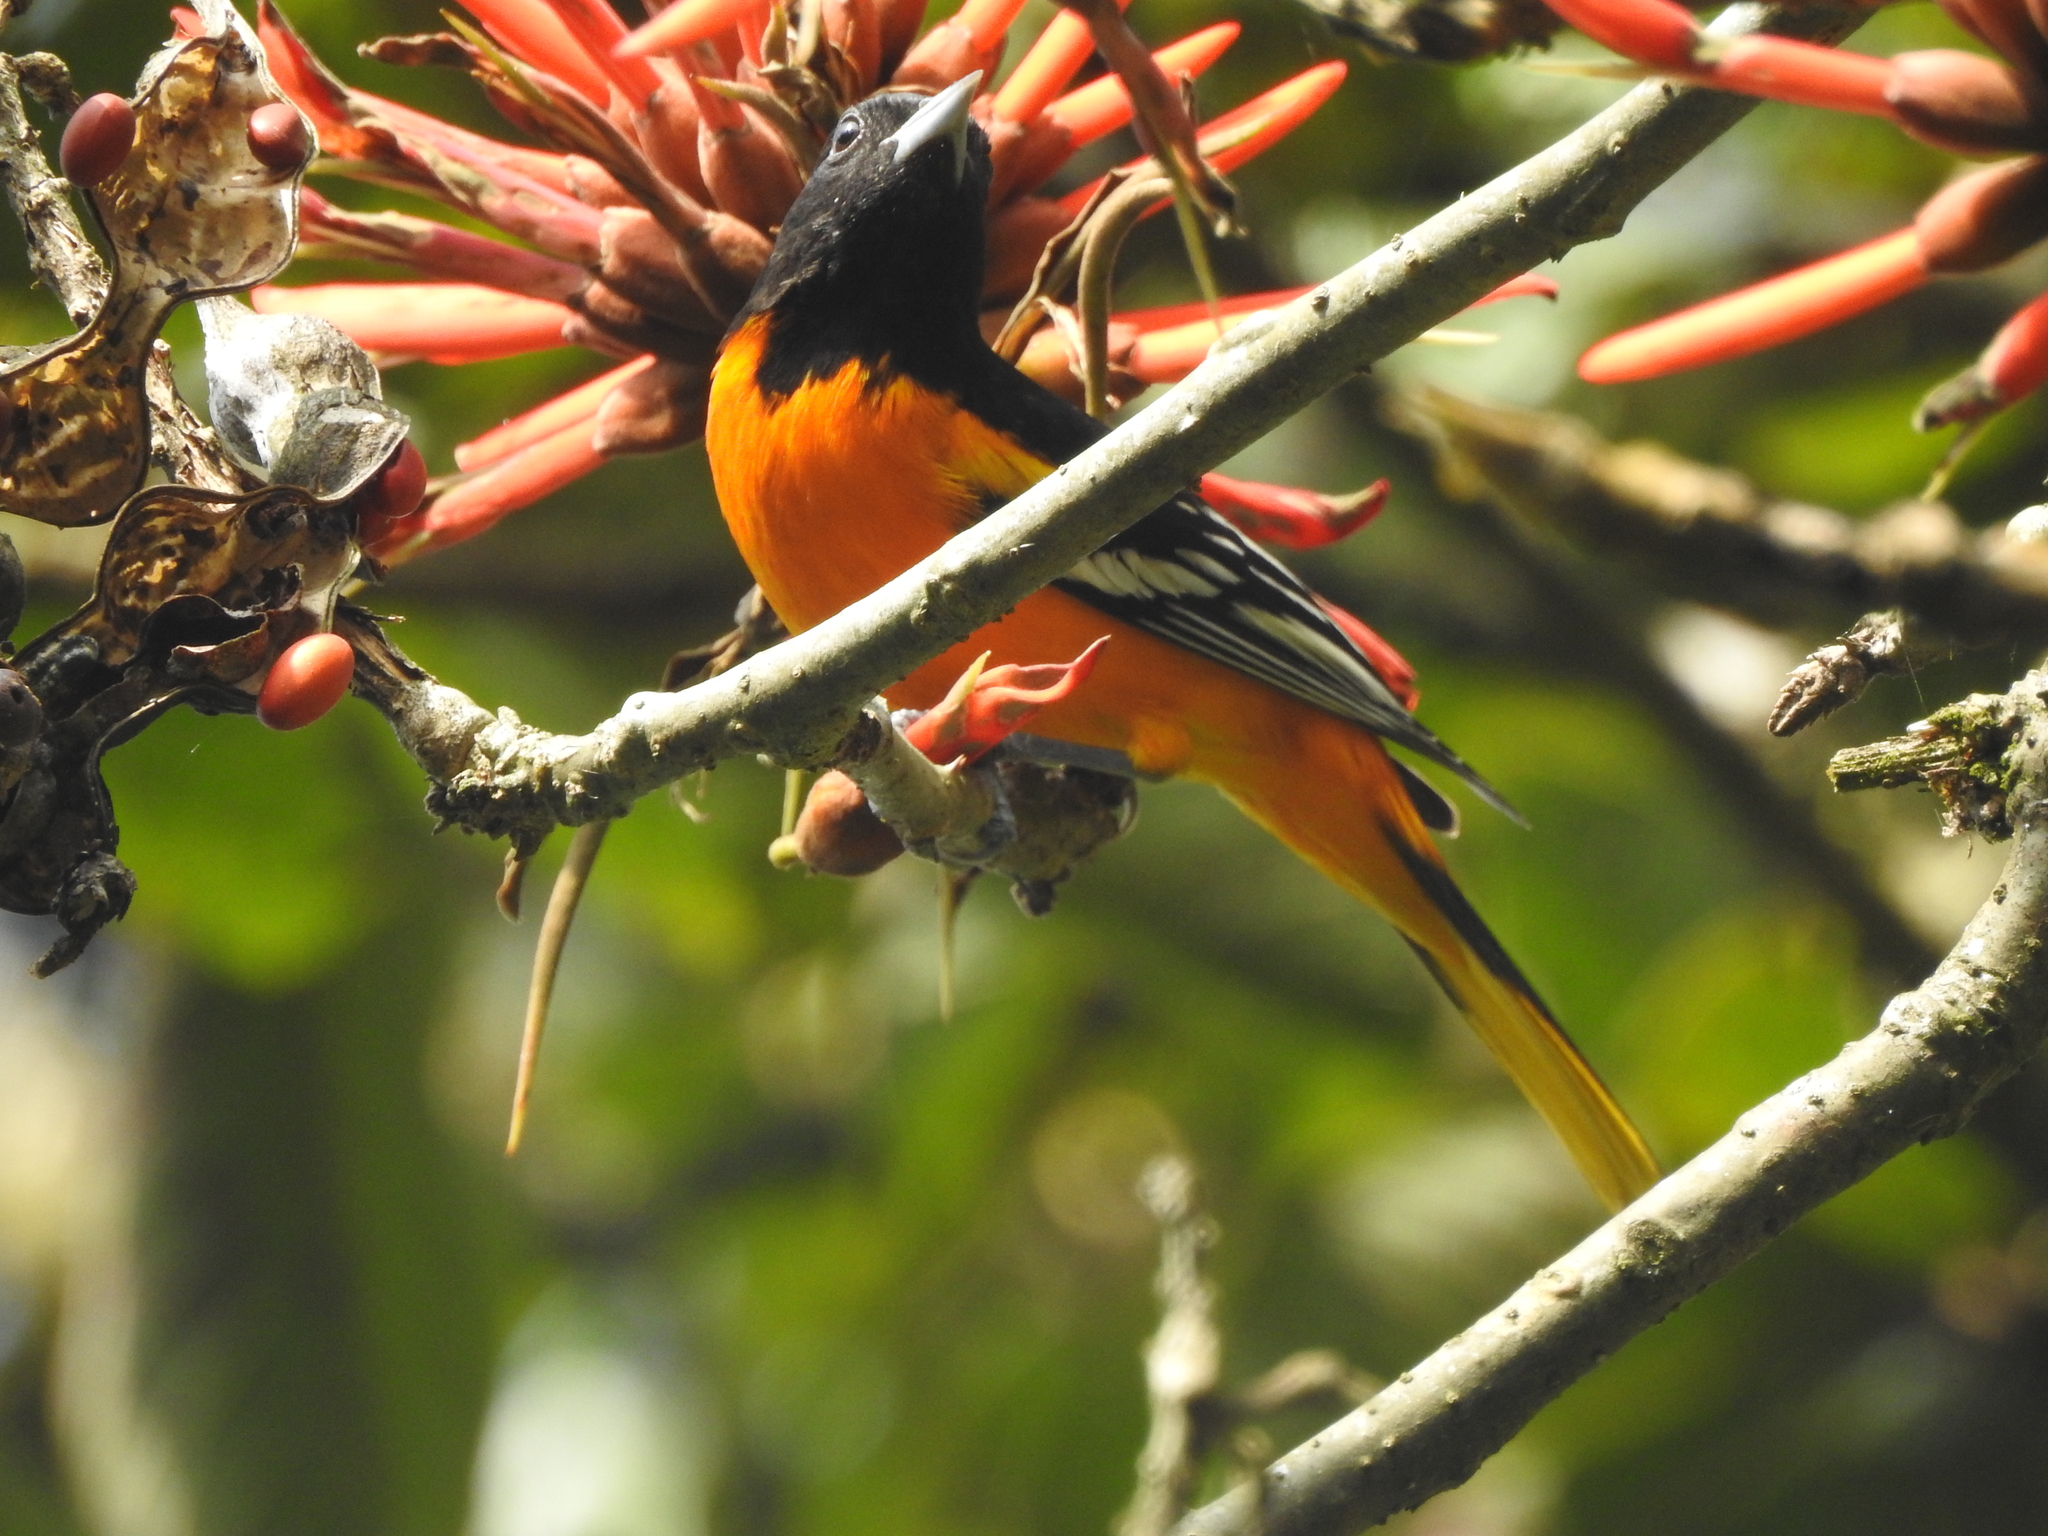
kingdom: Animalia
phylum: Chordata
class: Aves
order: Passeriformes
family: Icteridae
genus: Icterus
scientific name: Icterus galbula
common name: Baltimore oriole
